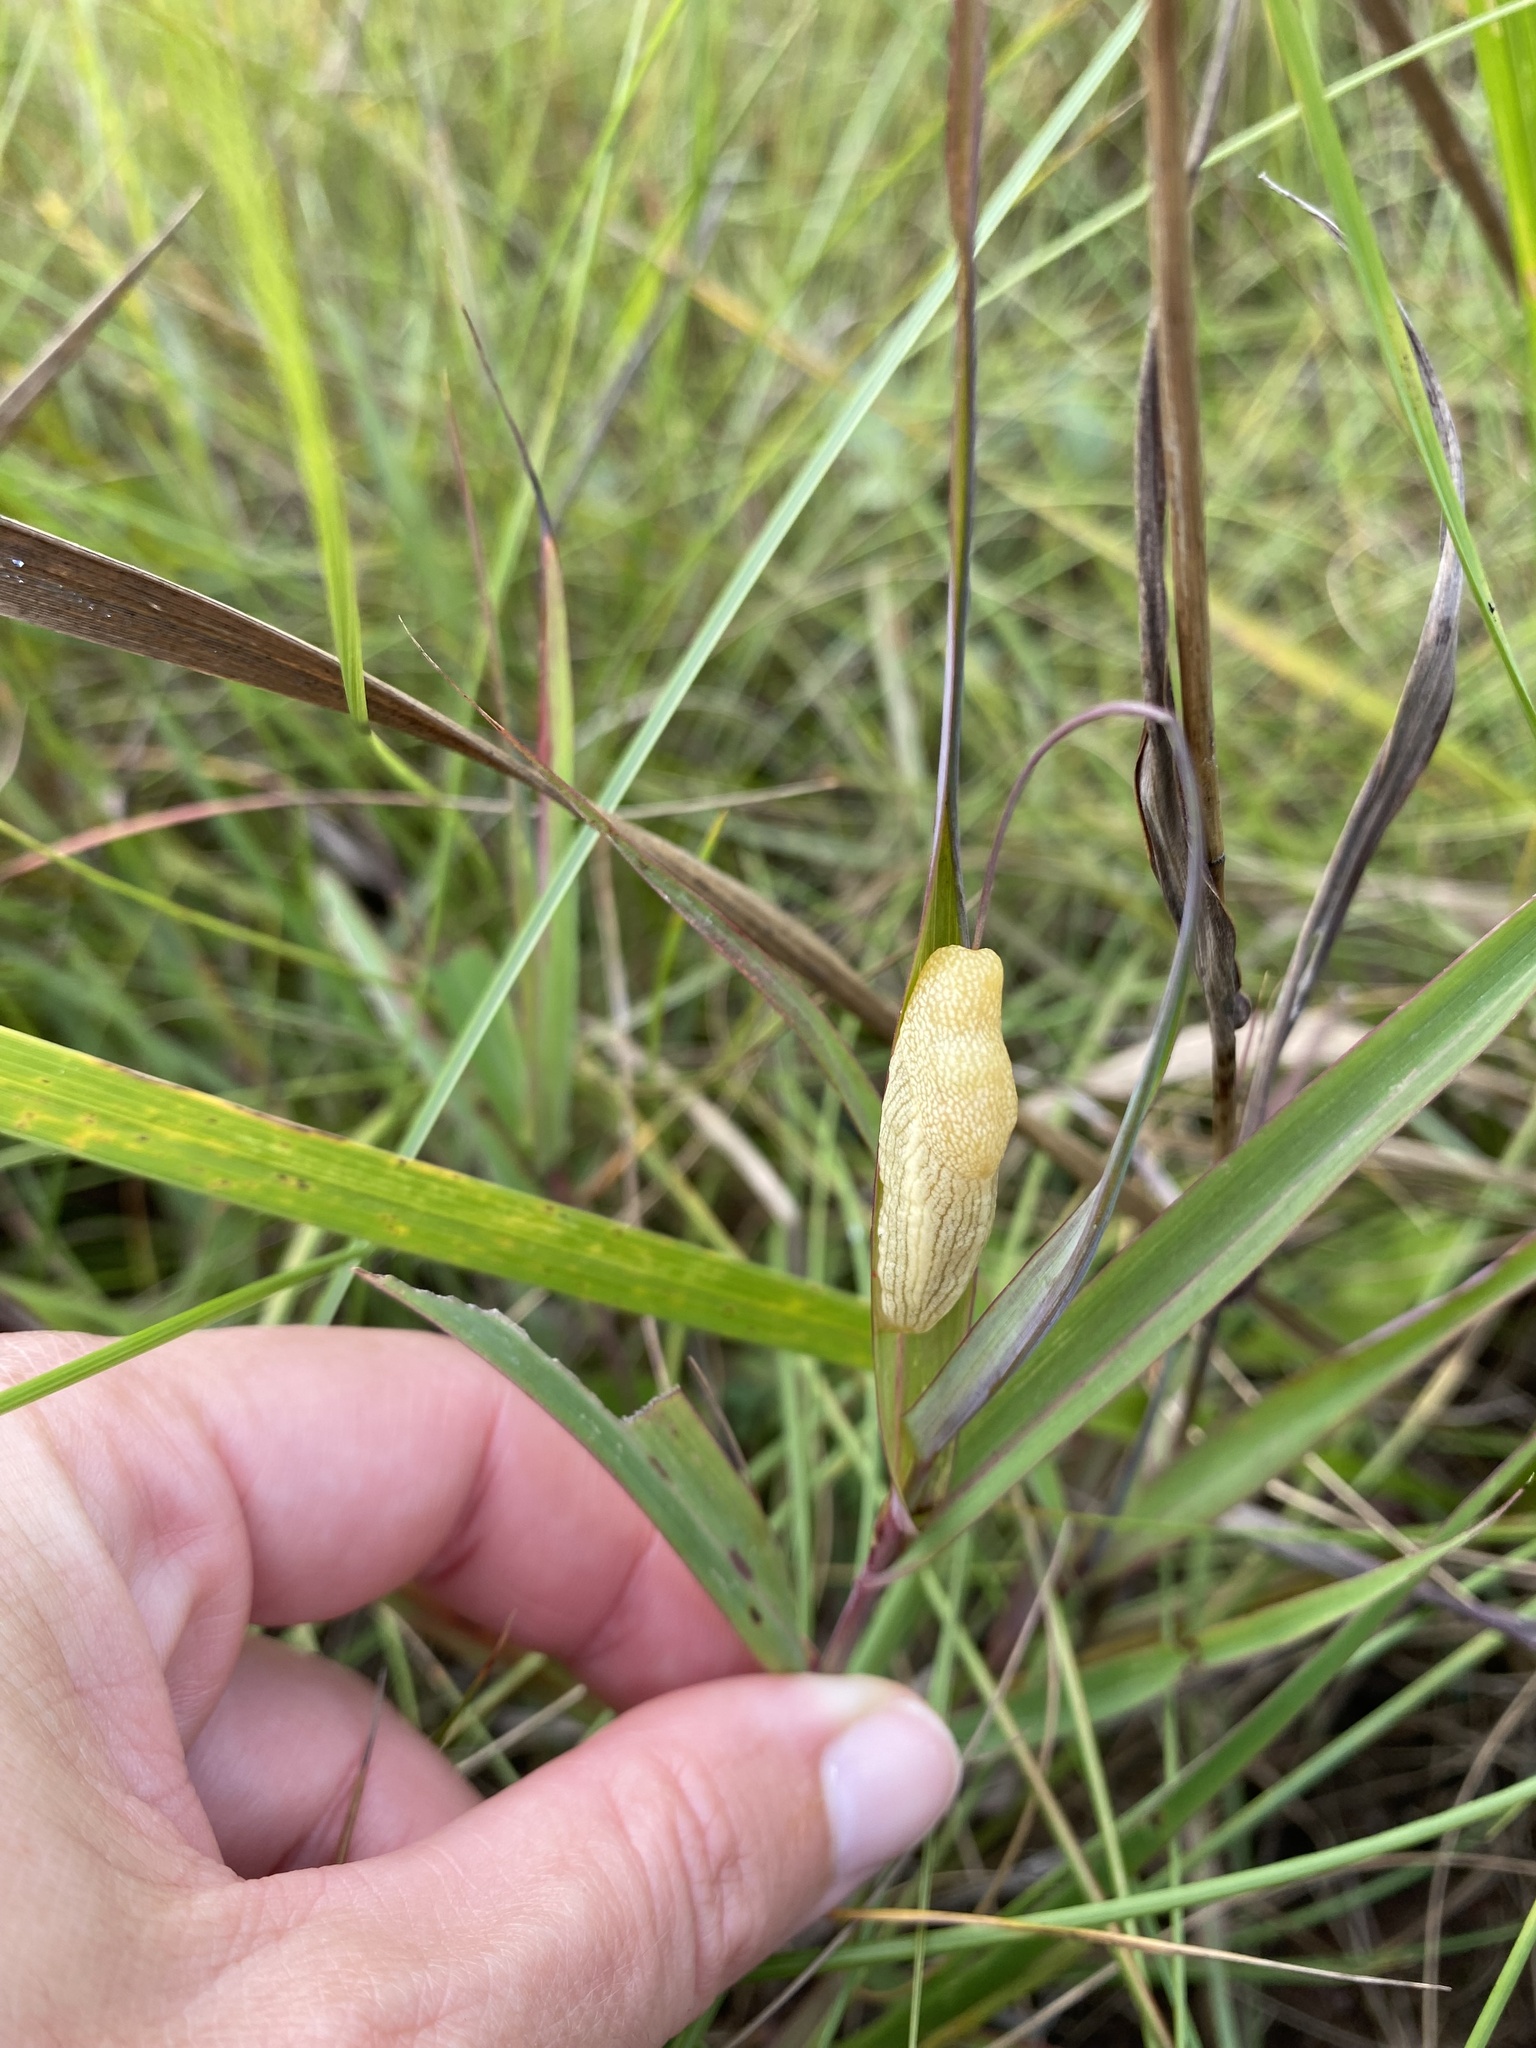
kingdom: Animalia
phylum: Mollusca
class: Gastropoda
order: Stylommatophora
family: Urocyclidae
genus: Elisolimax
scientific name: Elisolimax flavescens
